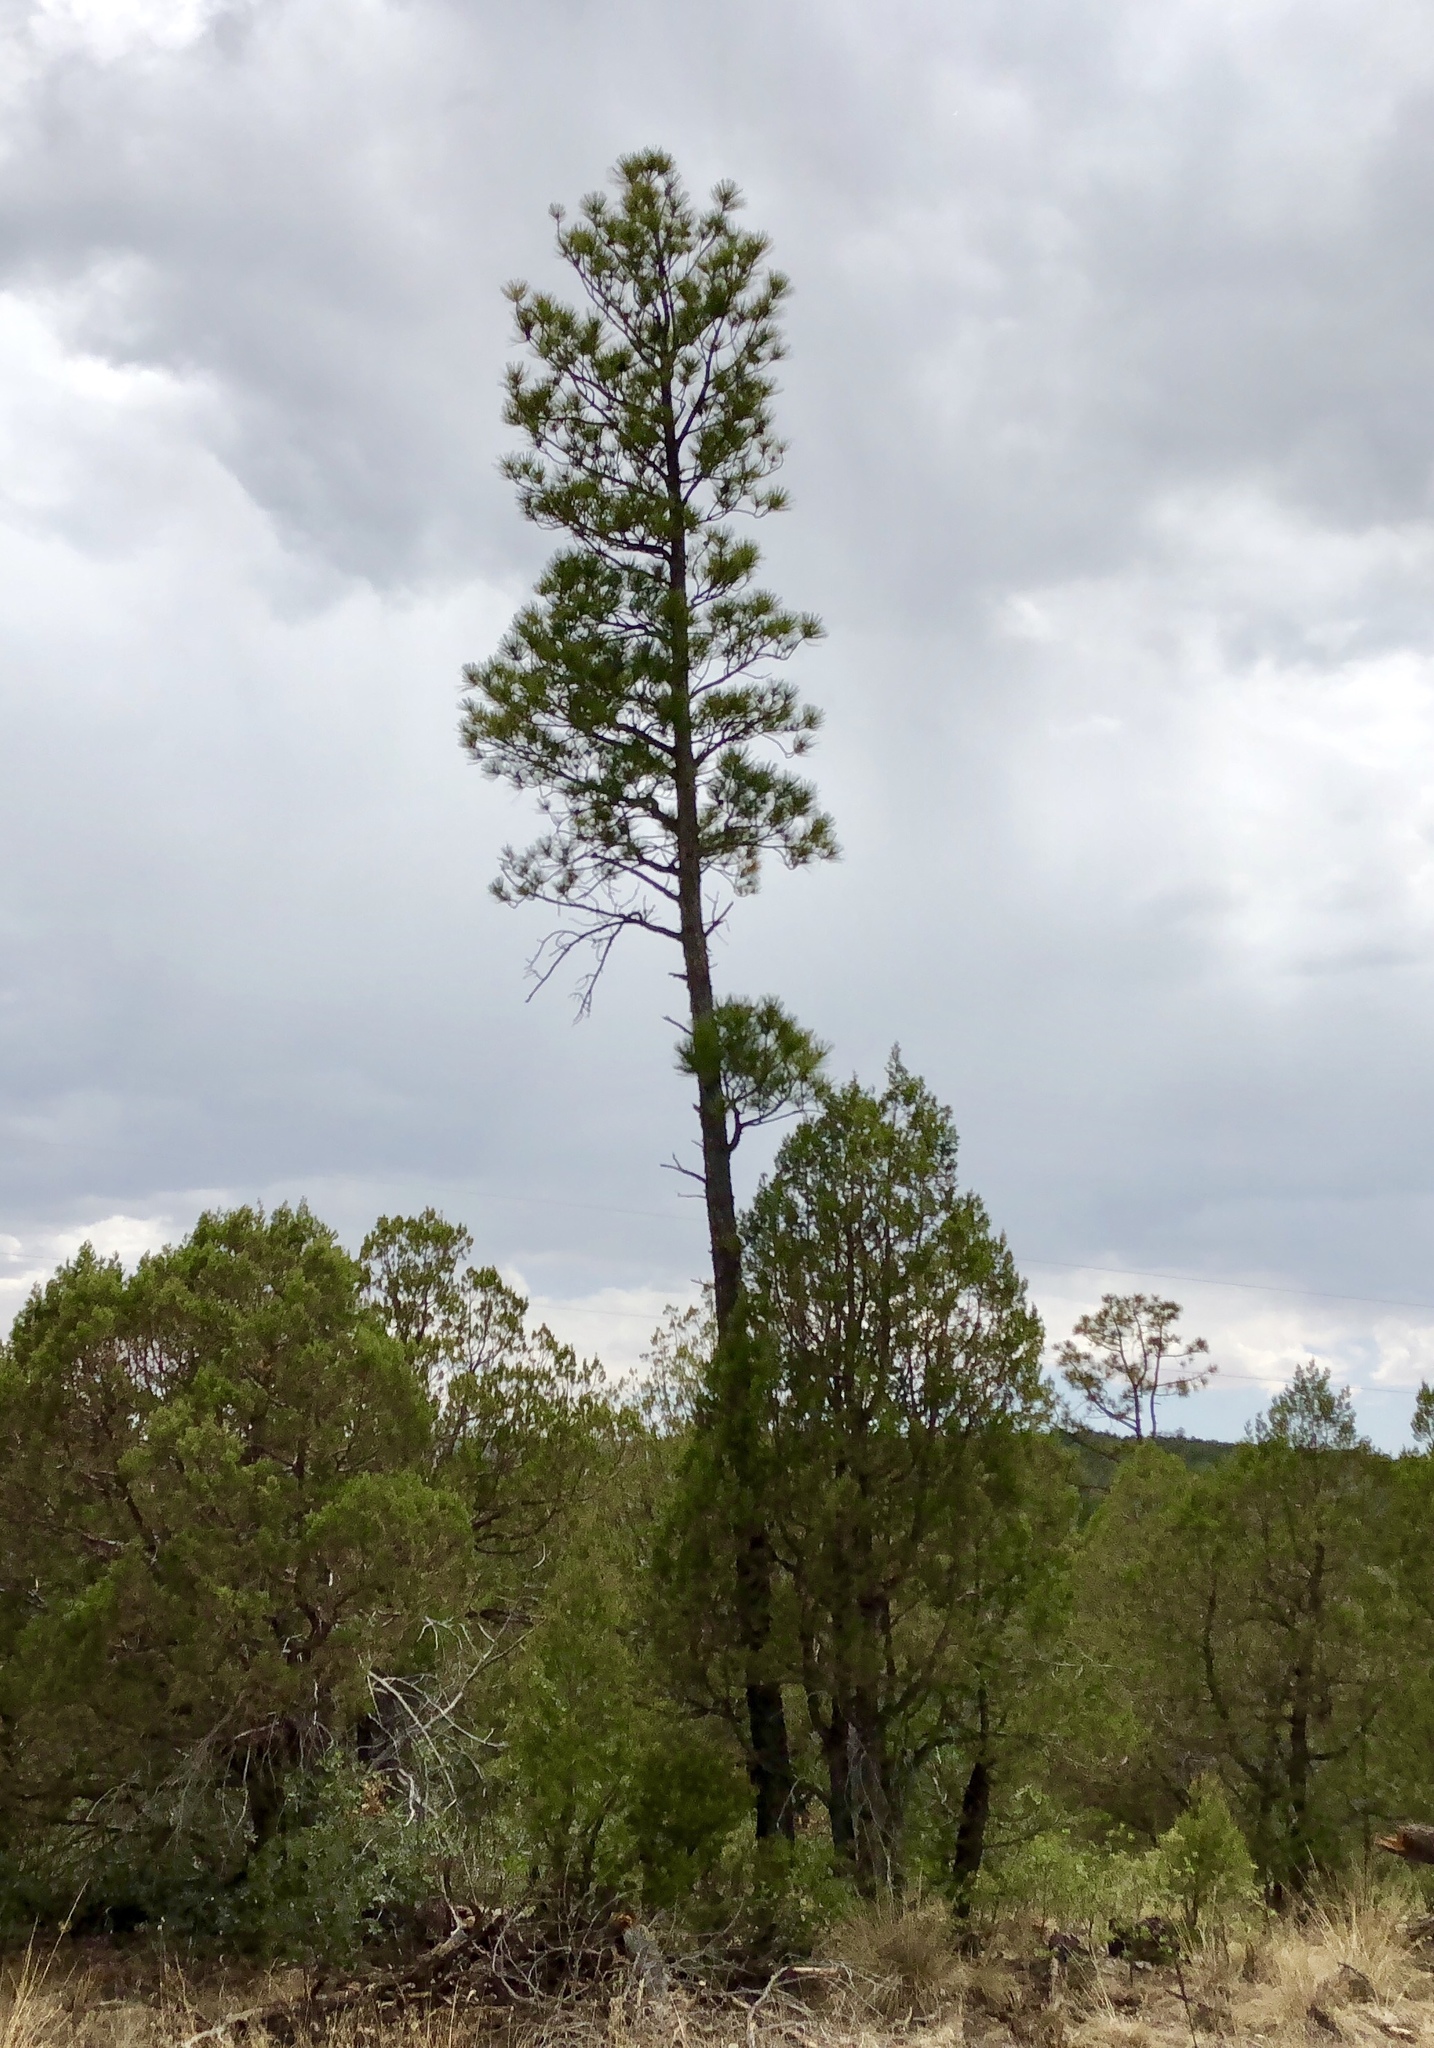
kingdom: Plantae
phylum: Tracheophyta
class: Pinopsida
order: Pinales
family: Pinaceae
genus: Pinus
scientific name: Pinus ponderosa
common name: Western yellow-pine
